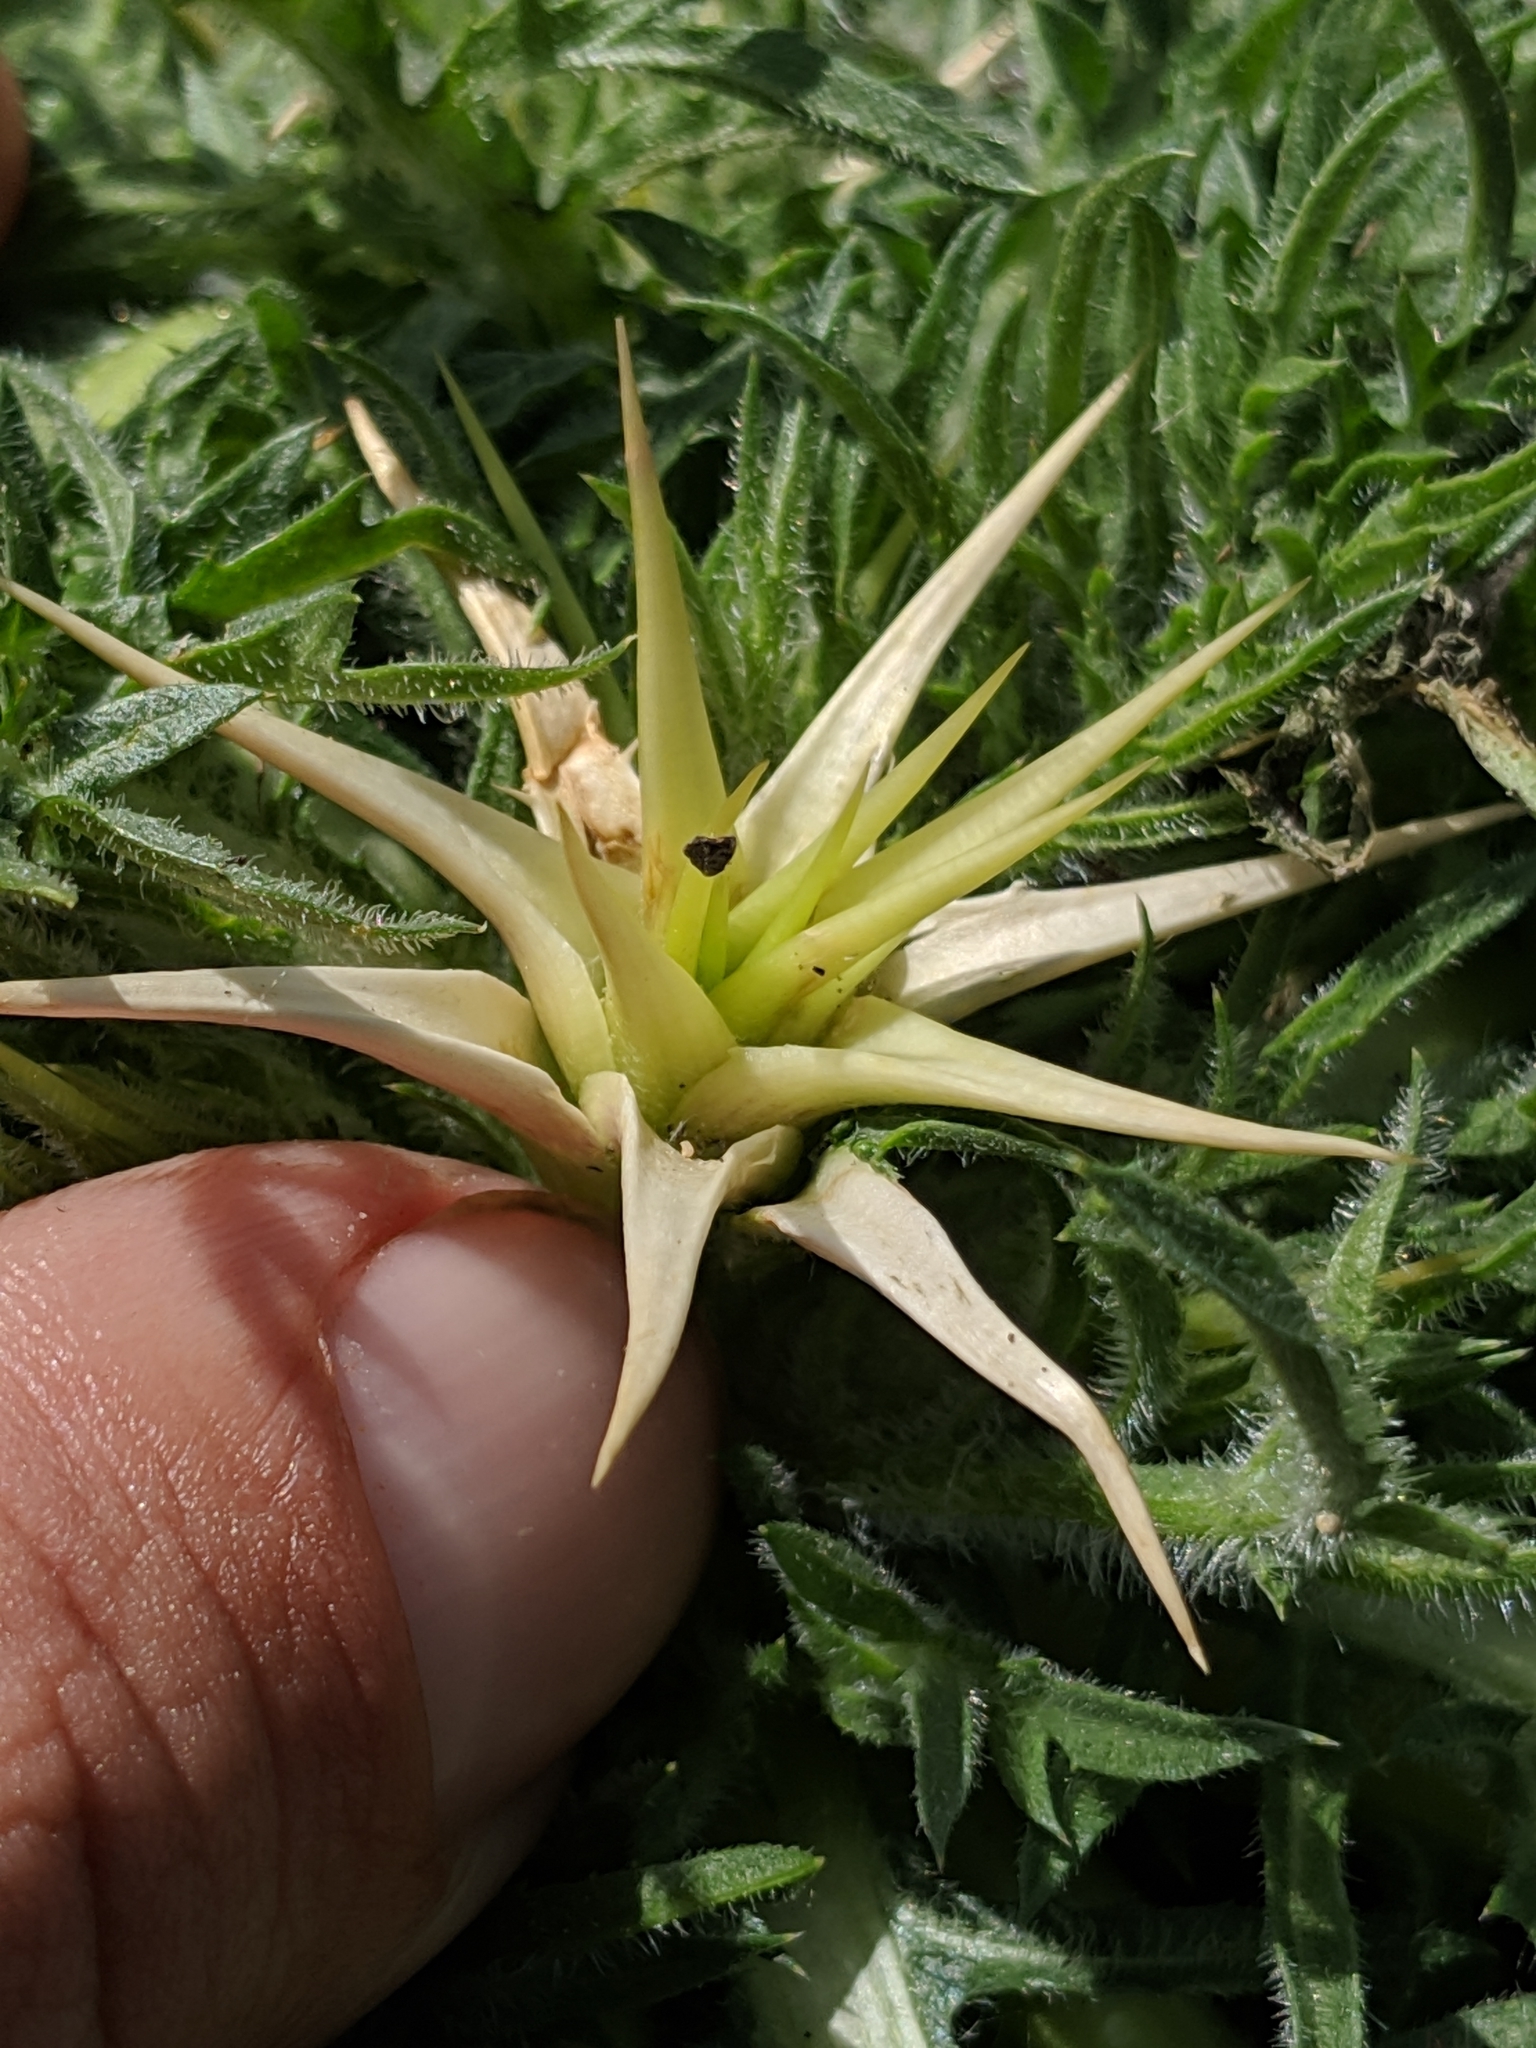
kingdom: Plantae
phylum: Tracheophyta
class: Magnoliopsida
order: Asterales
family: Asteraceae
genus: Centaurea
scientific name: Centaurea calcitrapa
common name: Red star-thistle
